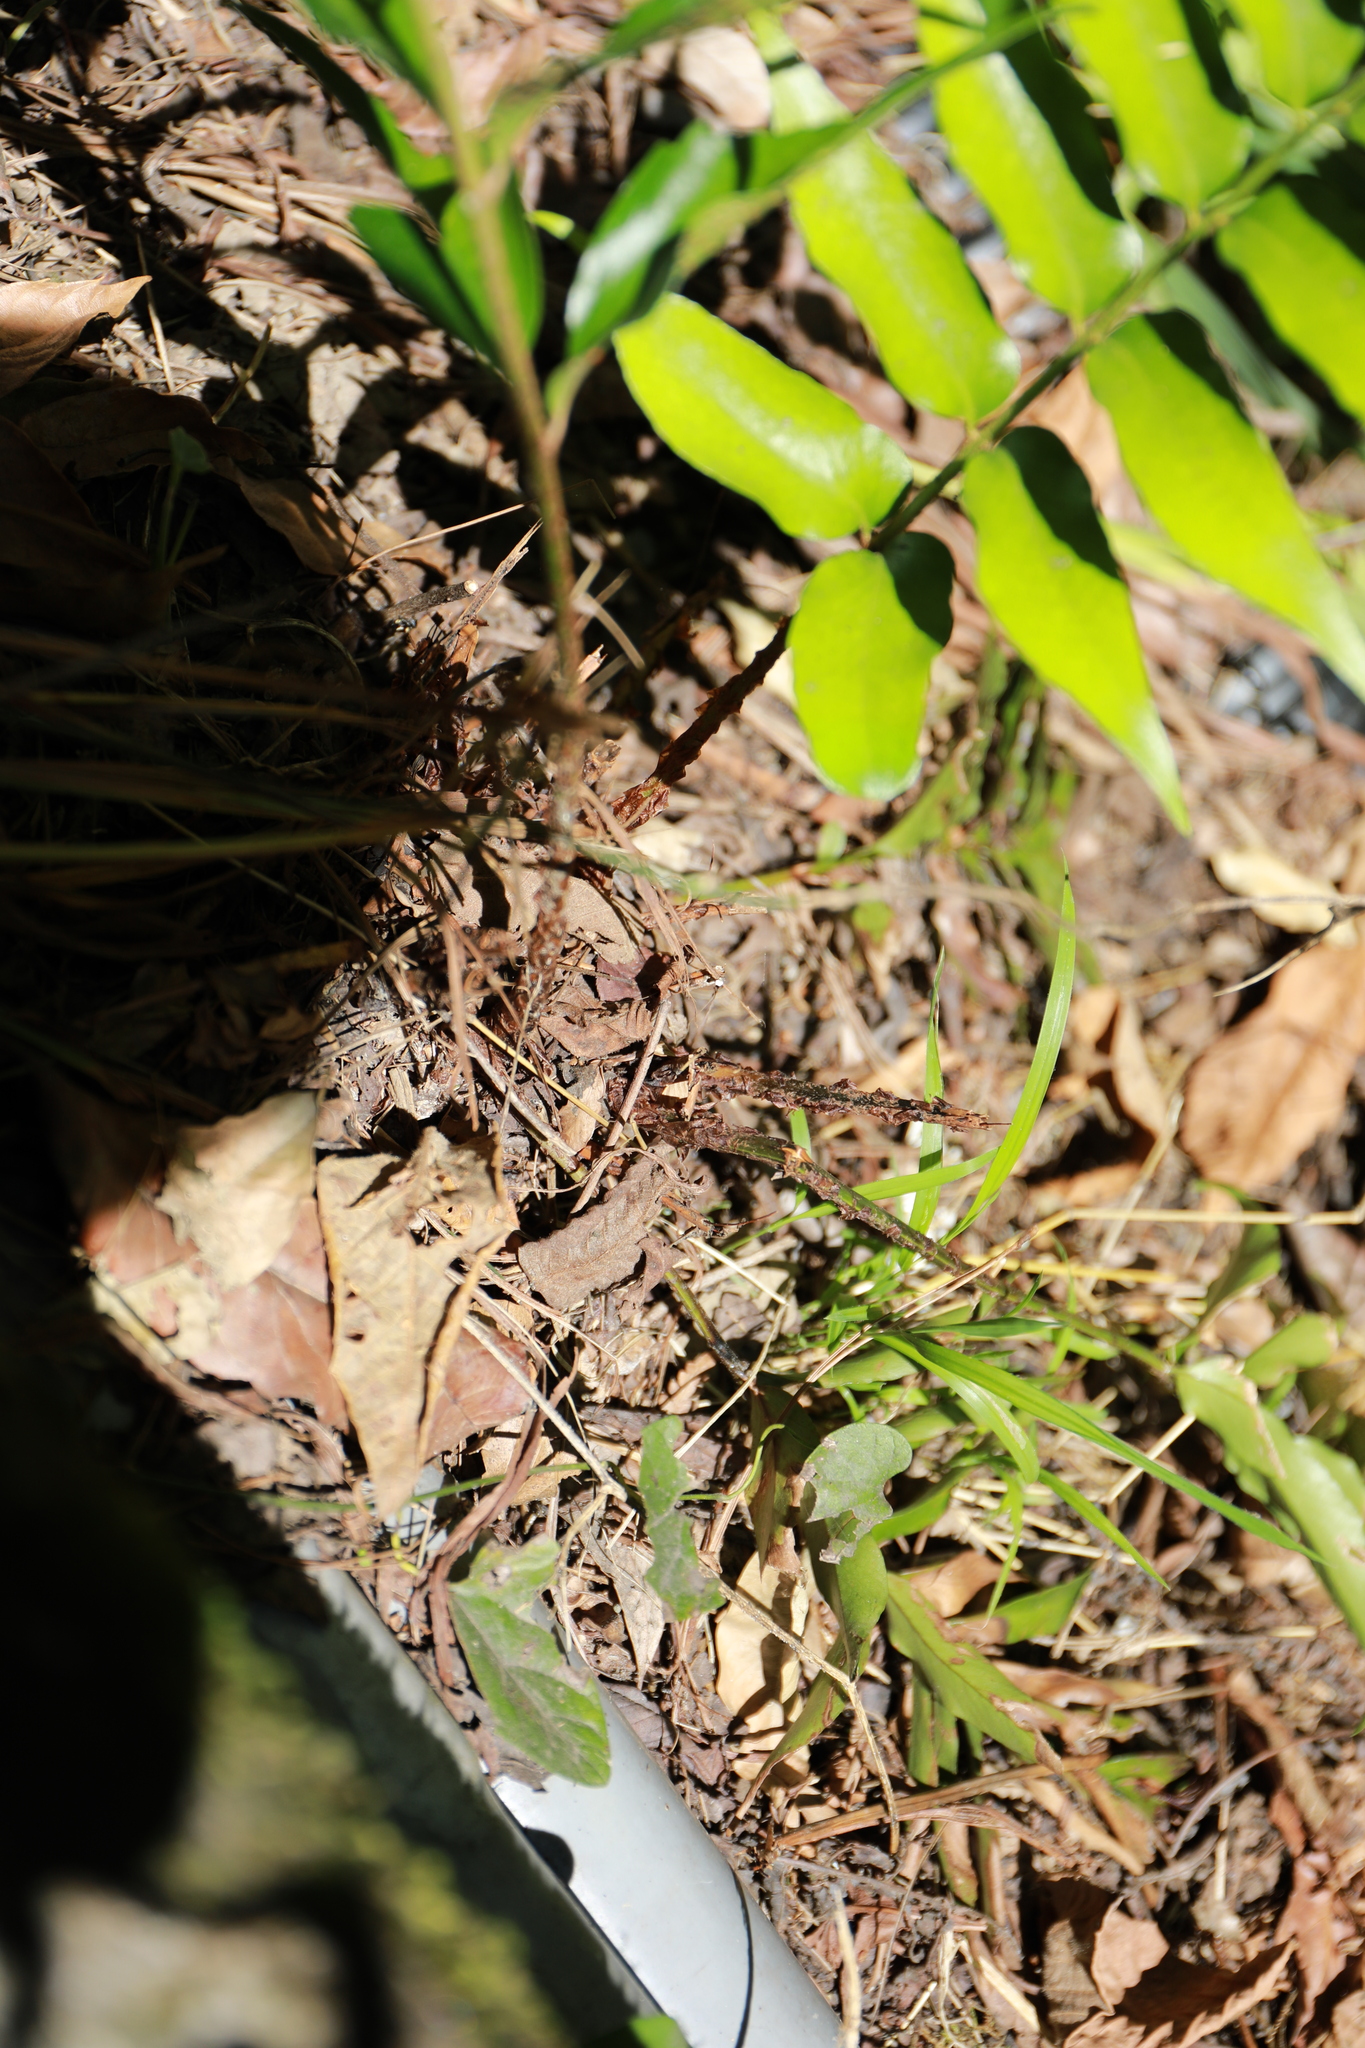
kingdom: Plantae
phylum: Tracheophyta
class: Polypodiopsida
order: Polypodiales
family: Dryopteridaceae
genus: Cyrtomium
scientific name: Cyrtomium devexiscapulae
